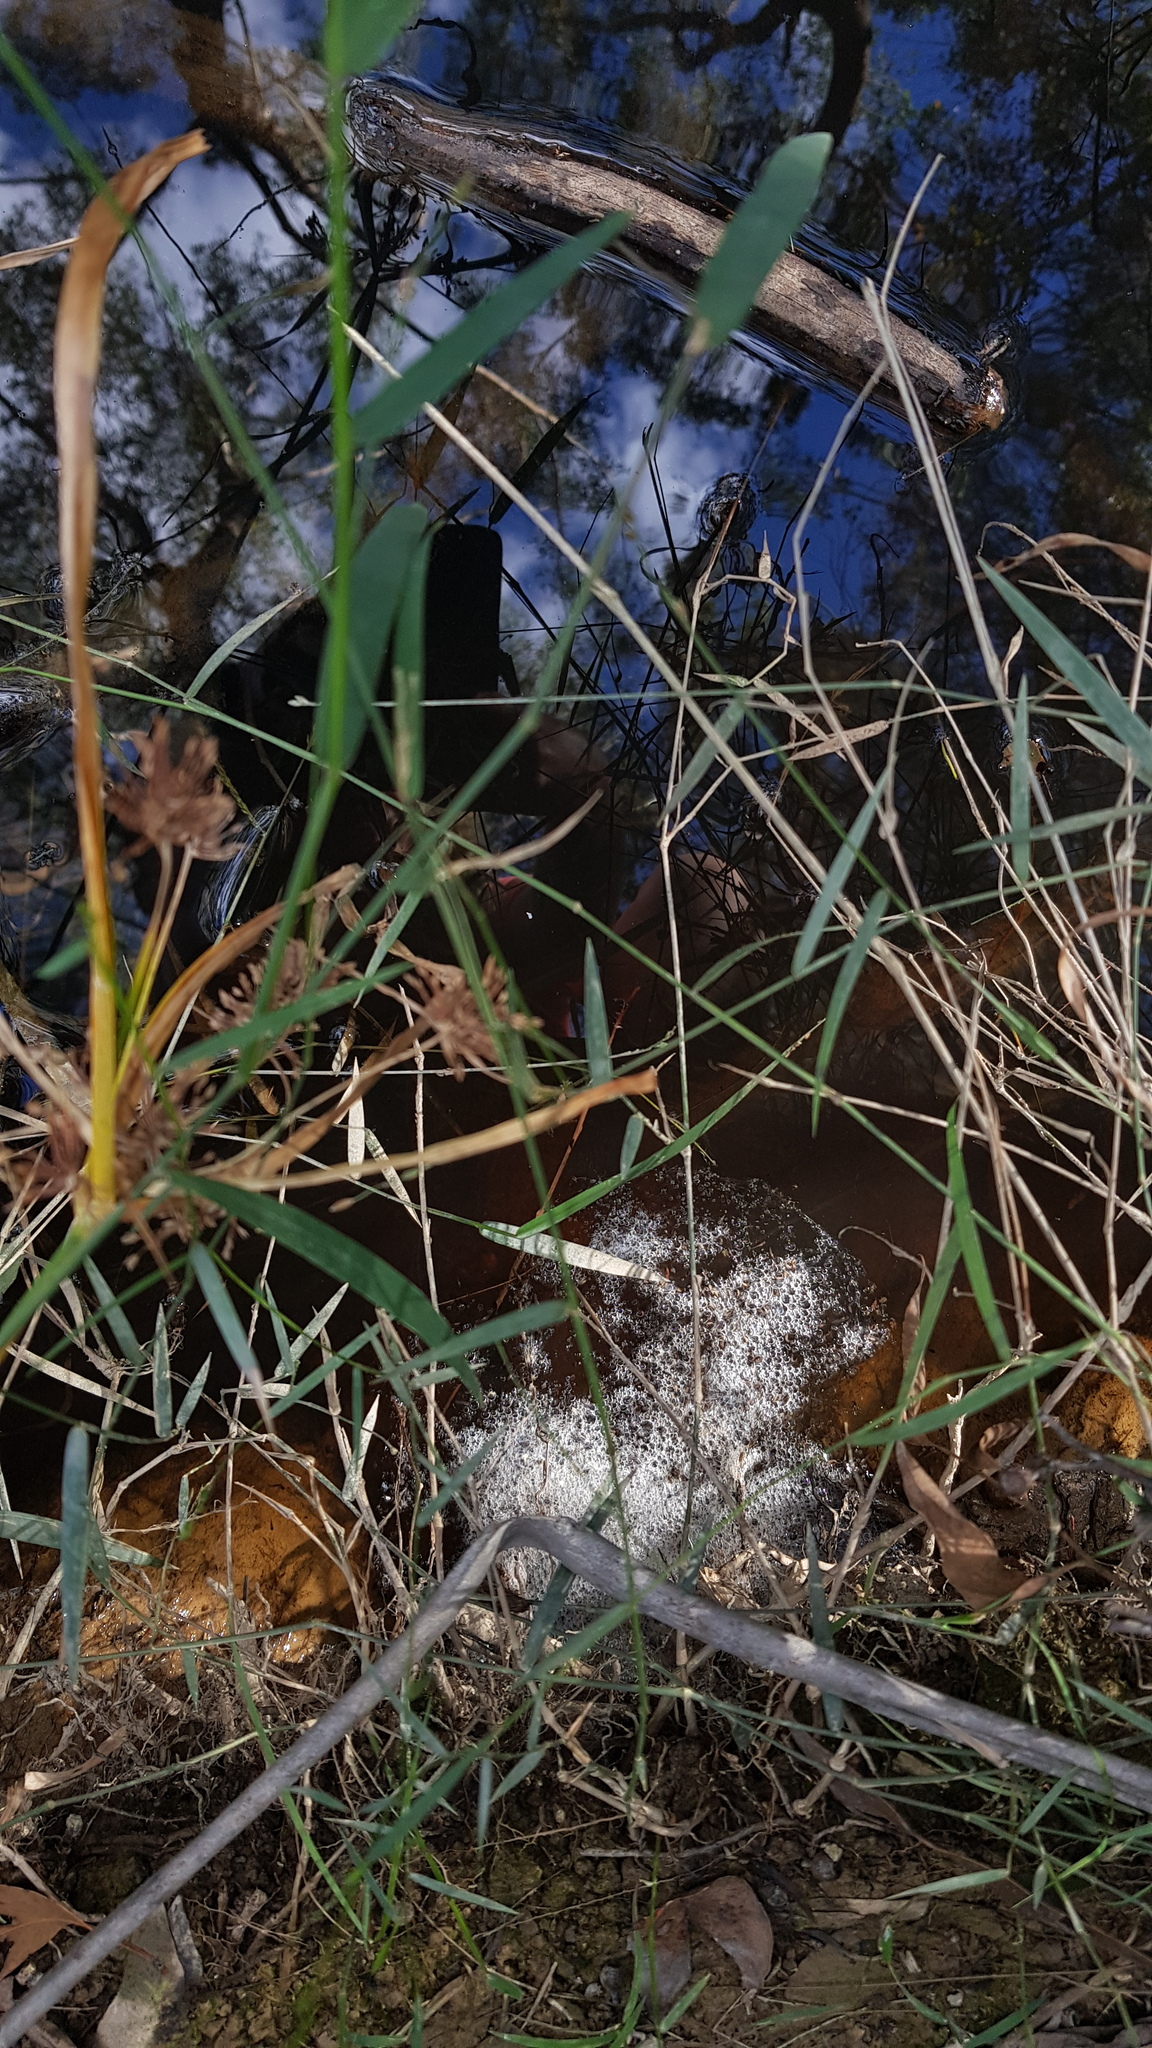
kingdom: Animalia
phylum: Chordata
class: Amphibia
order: Anura
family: Limnodynastidae
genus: Limnodynastes
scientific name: Limnodynastes peronii
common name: Brown frog
